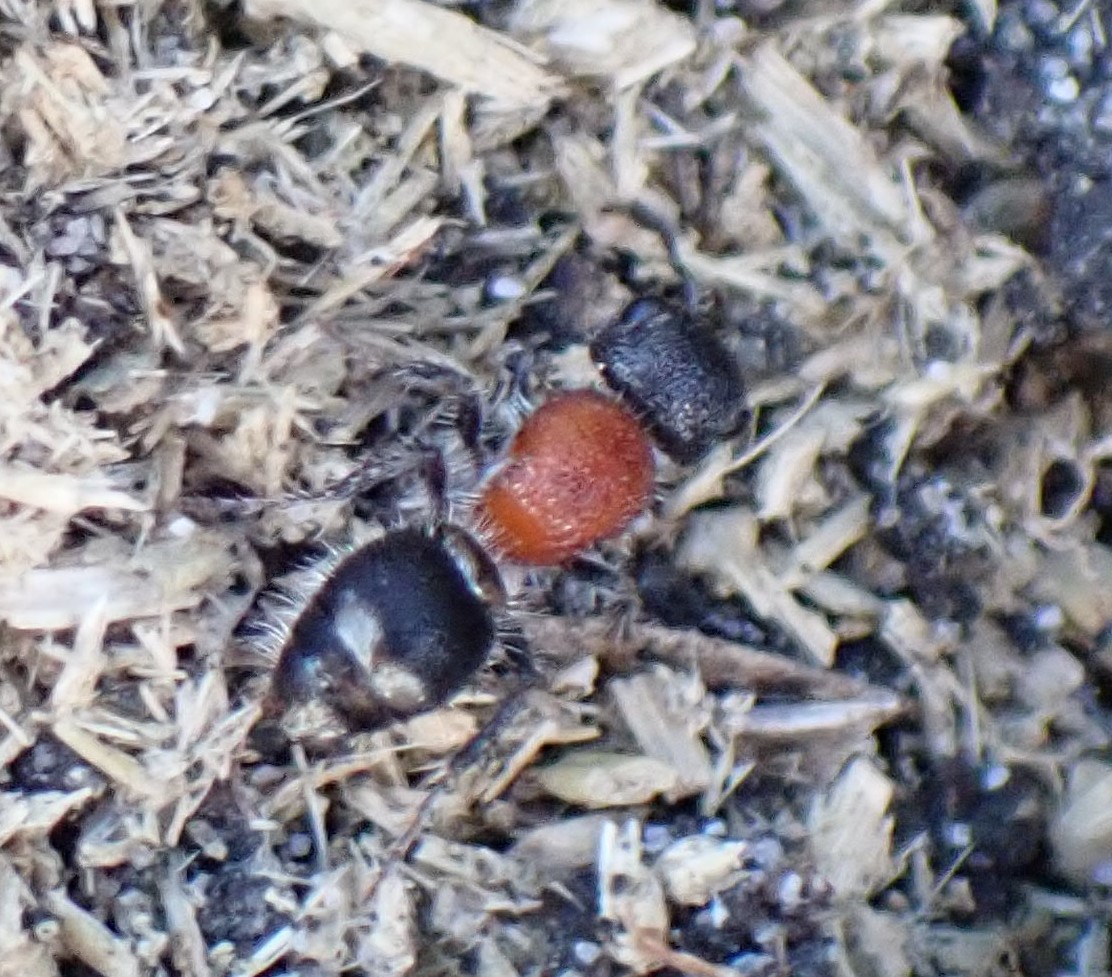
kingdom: Animalia
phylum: Arthropoda
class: Insecta
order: Hymenoptera
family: Mutillidae
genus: Ephutomorpha
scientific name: Ephutomorpha
